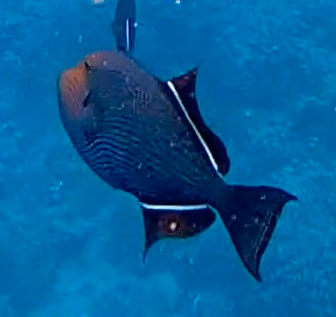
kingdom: Animalia
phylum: Chordata
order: Tetraodontiformes
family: Balistidae
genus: Melichthys
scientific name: Melichthys niger
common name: Black durgon
